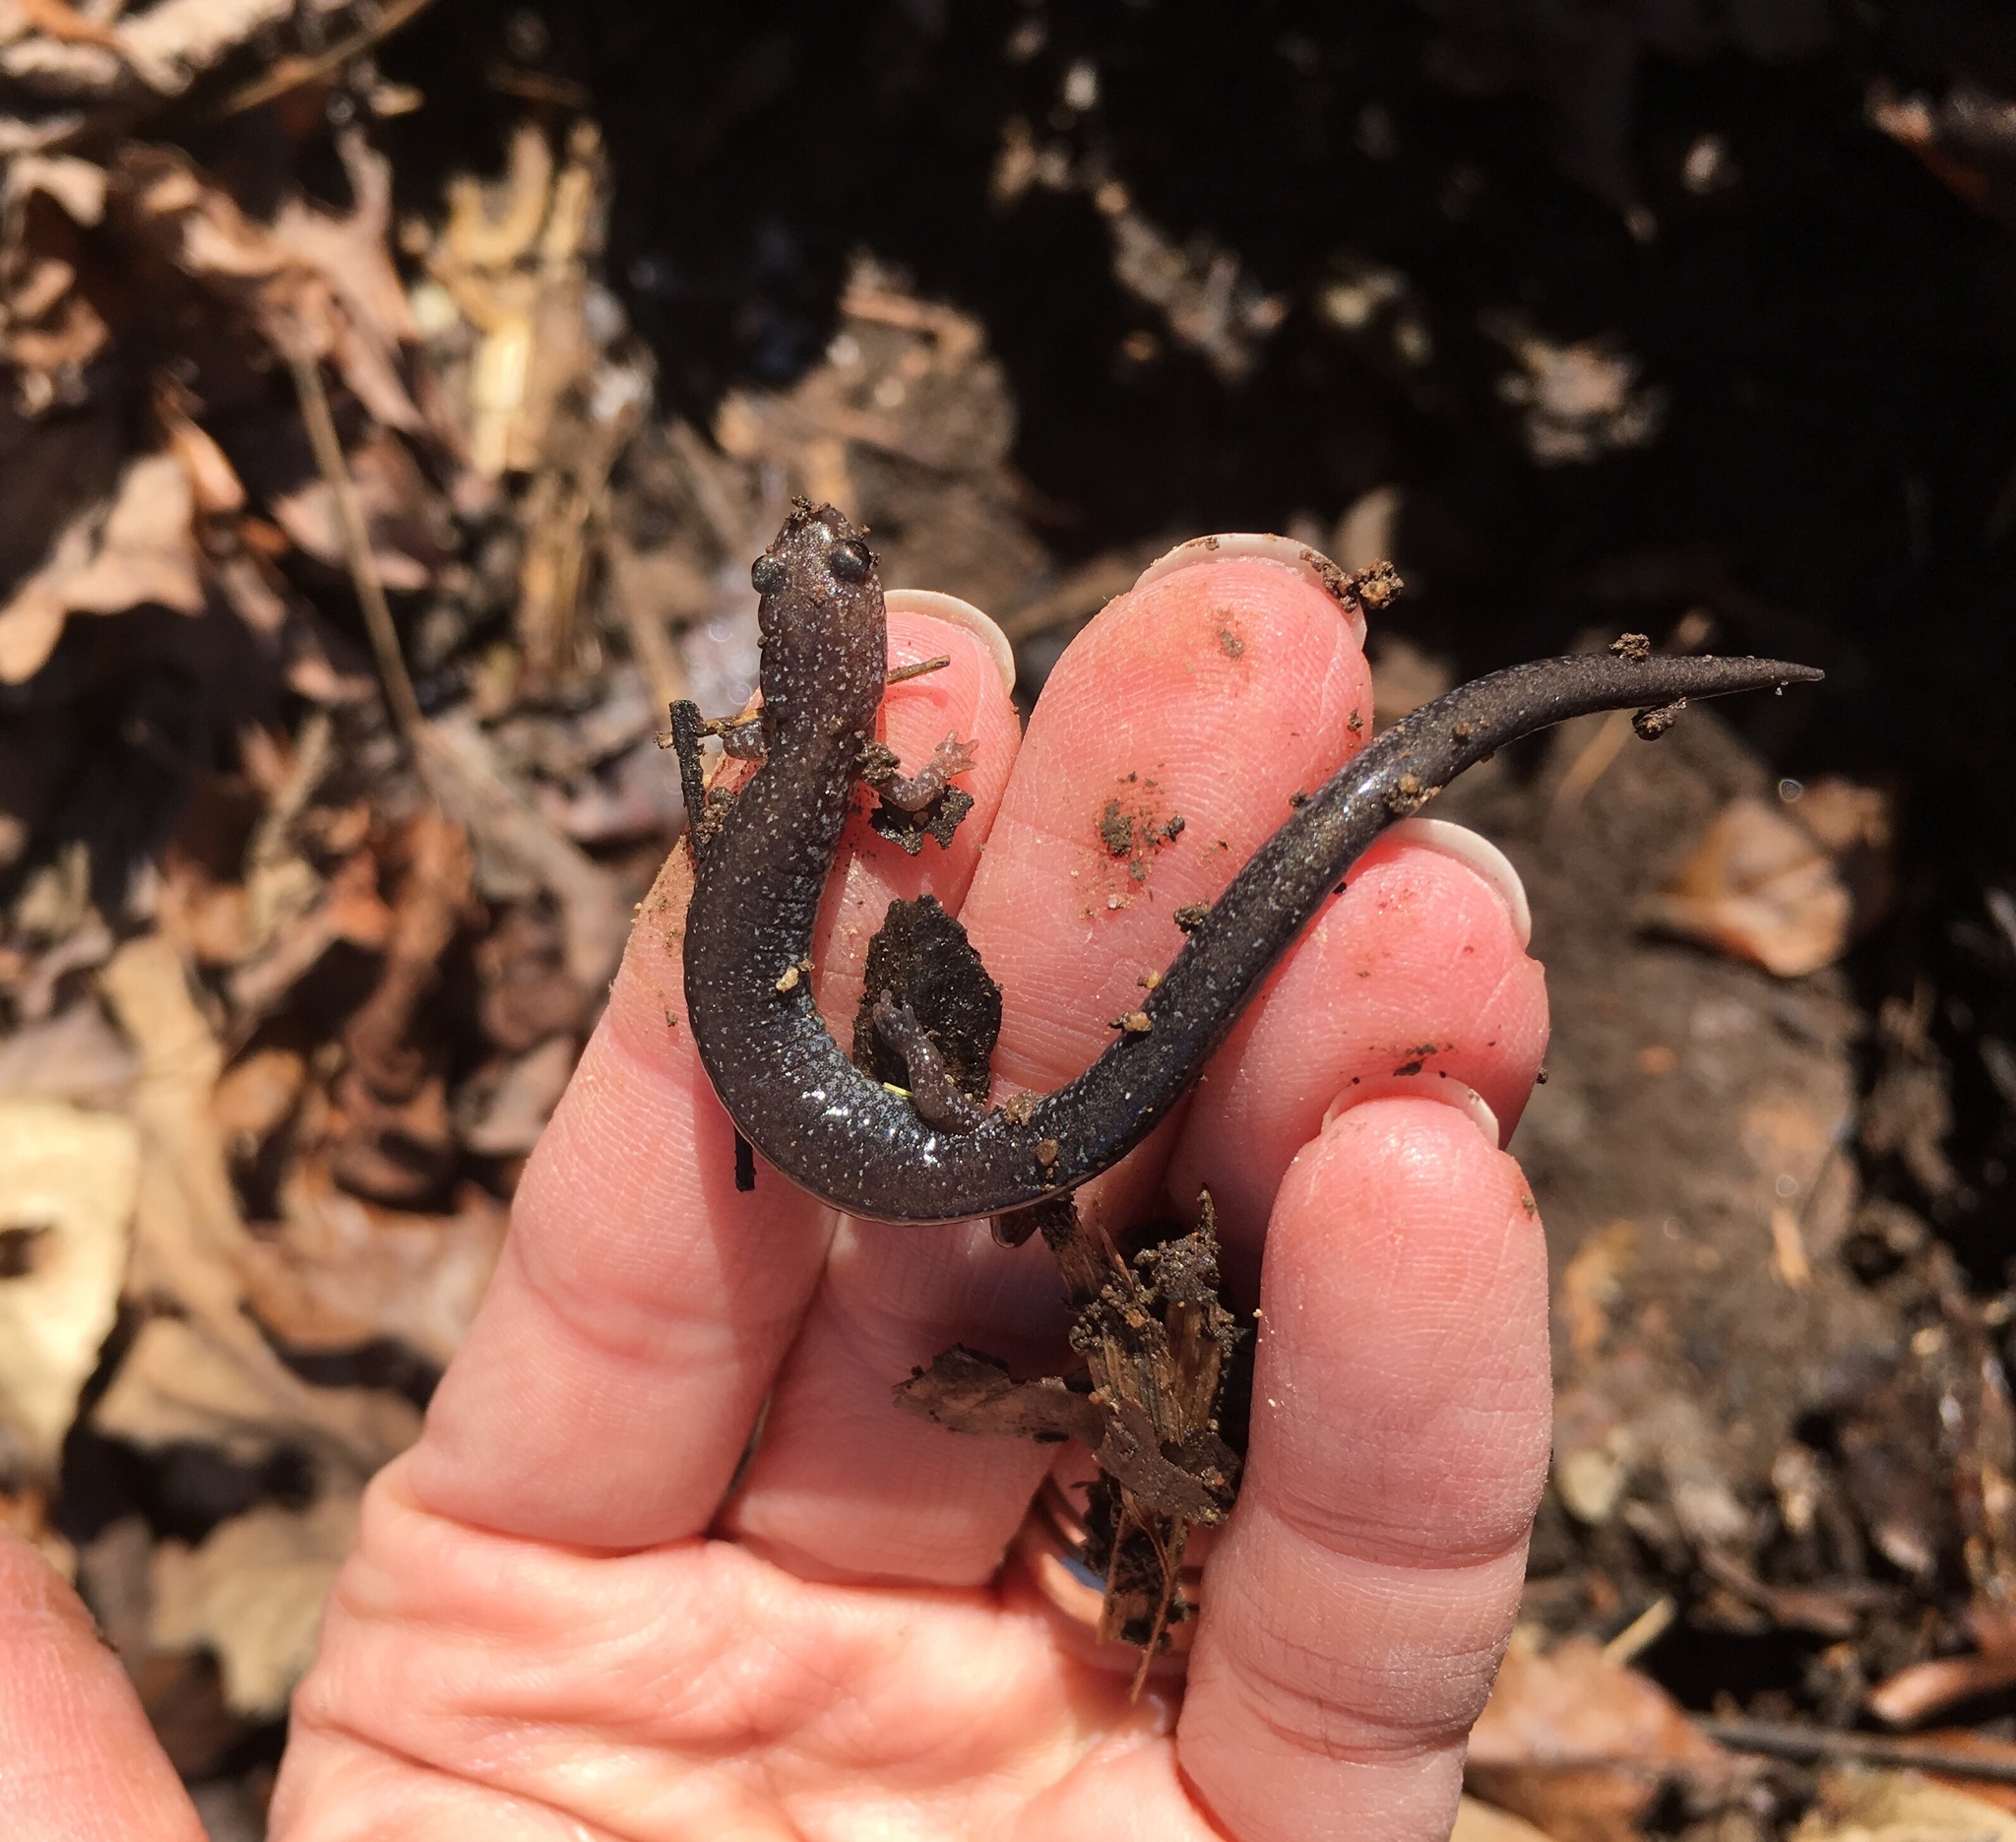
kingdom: Animalia
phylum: Chordata
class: Amphibia
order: Caudata
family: Plethodontidae
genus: Plethodon
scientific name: Plethodon cinereus
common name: Redback salamander
